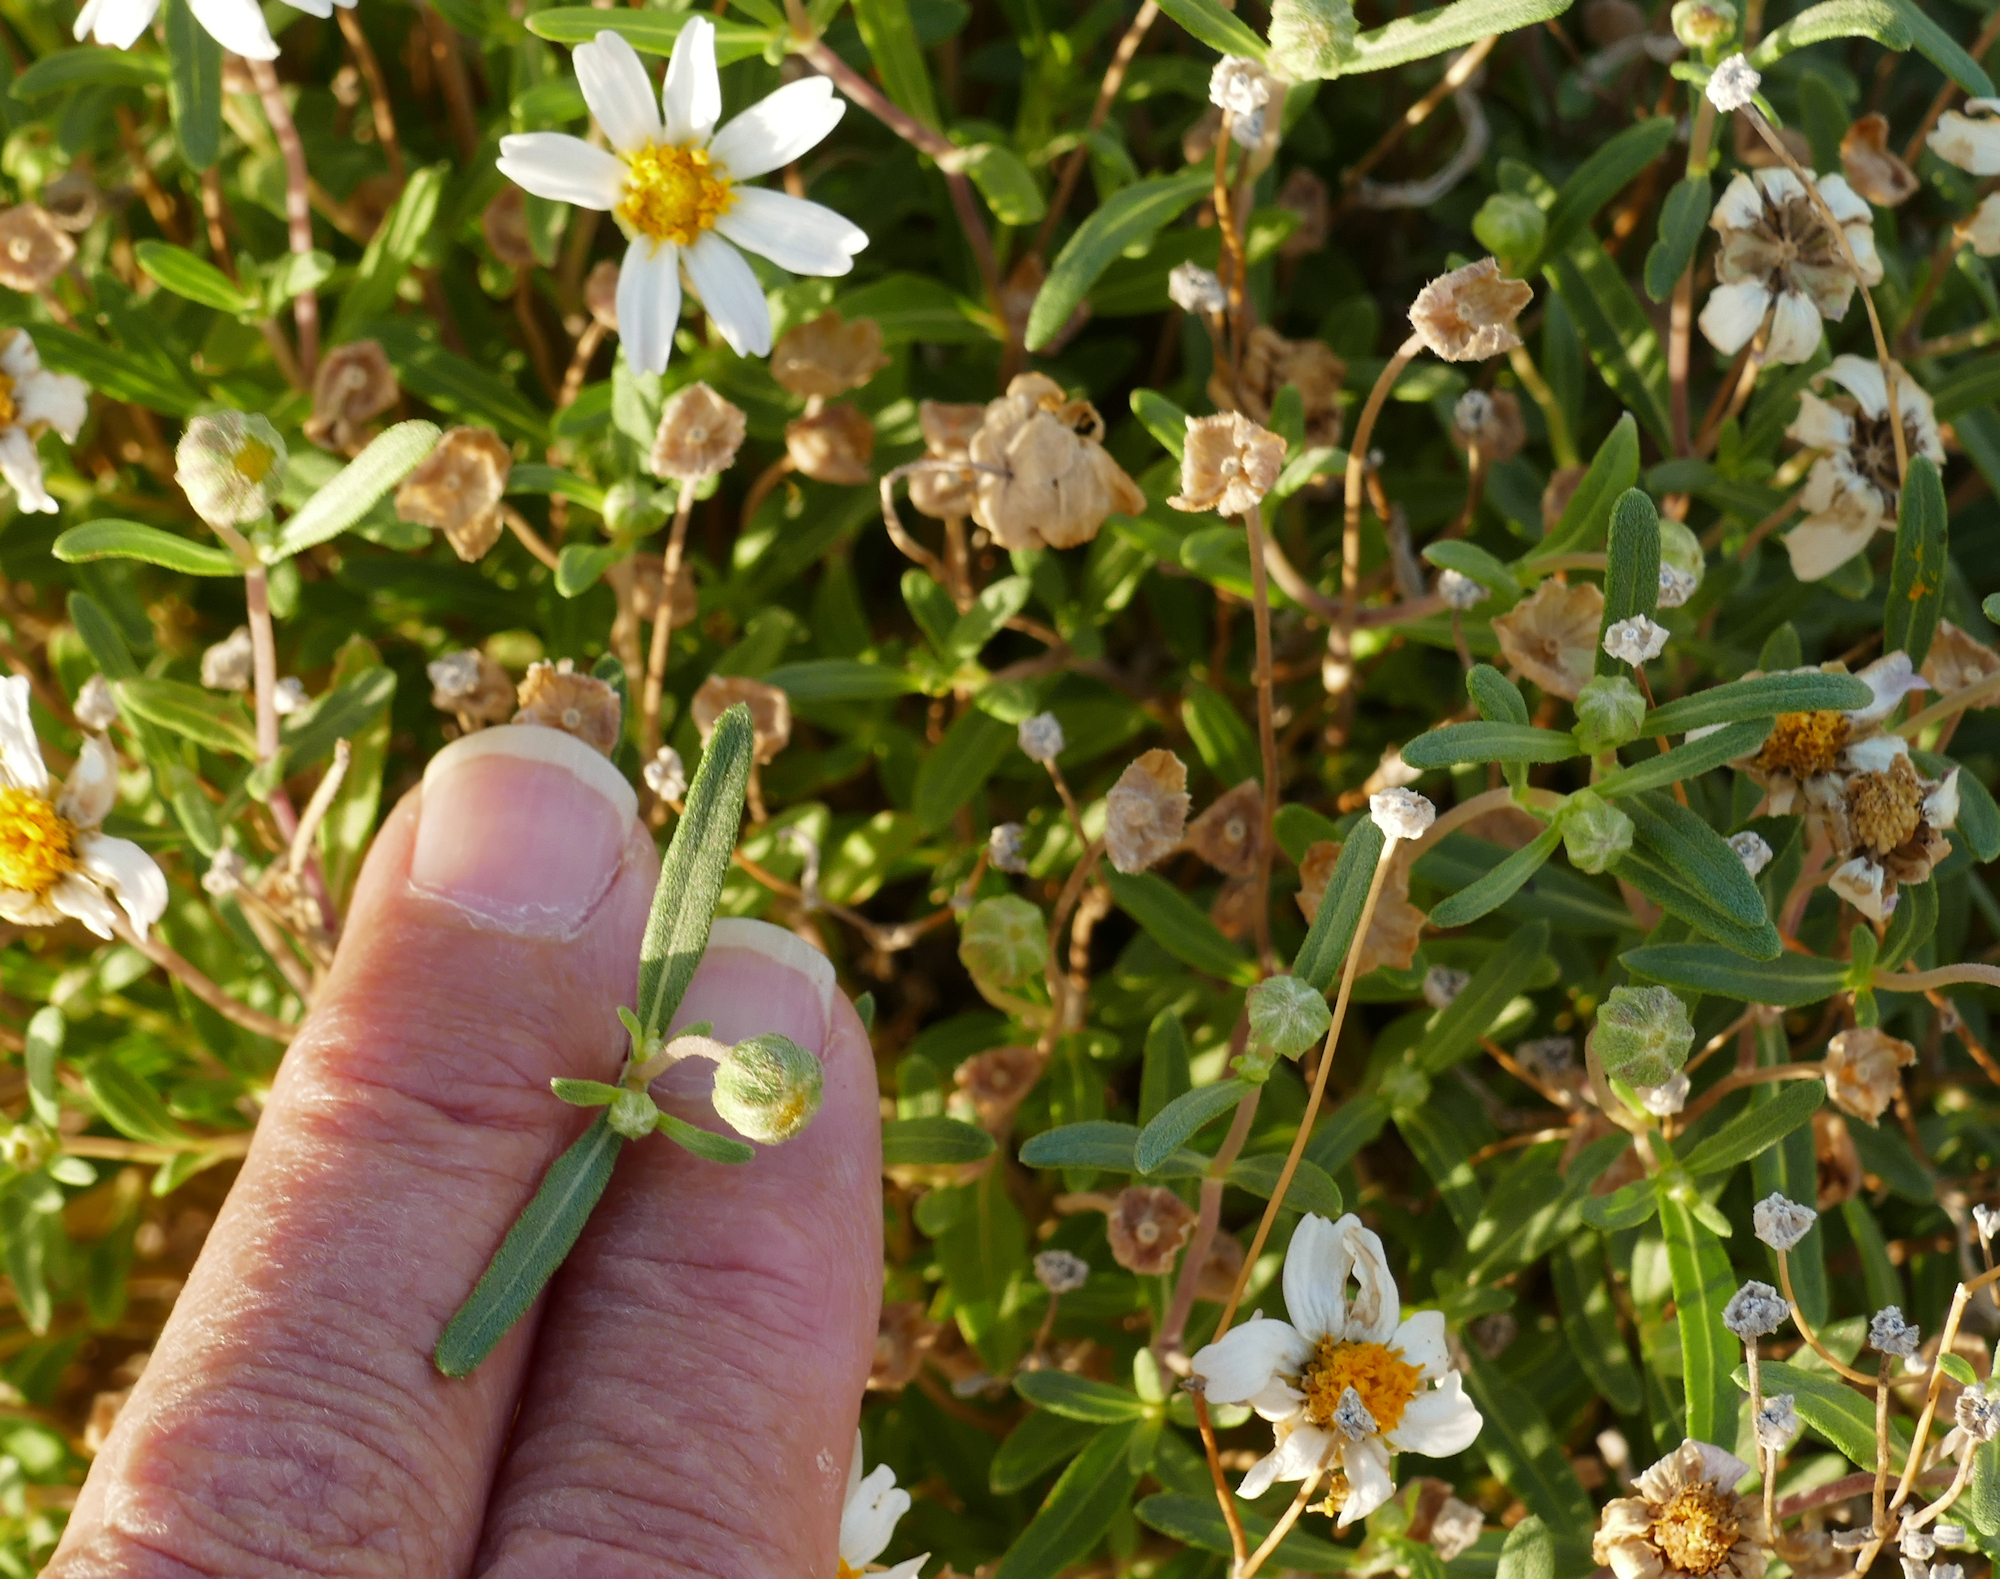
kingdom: Plantae
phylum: Tracheophyta
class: Magnoliopsida
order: Asterales
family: Asteraceae
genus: Melampodium
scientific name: Melampodium leucanthum
